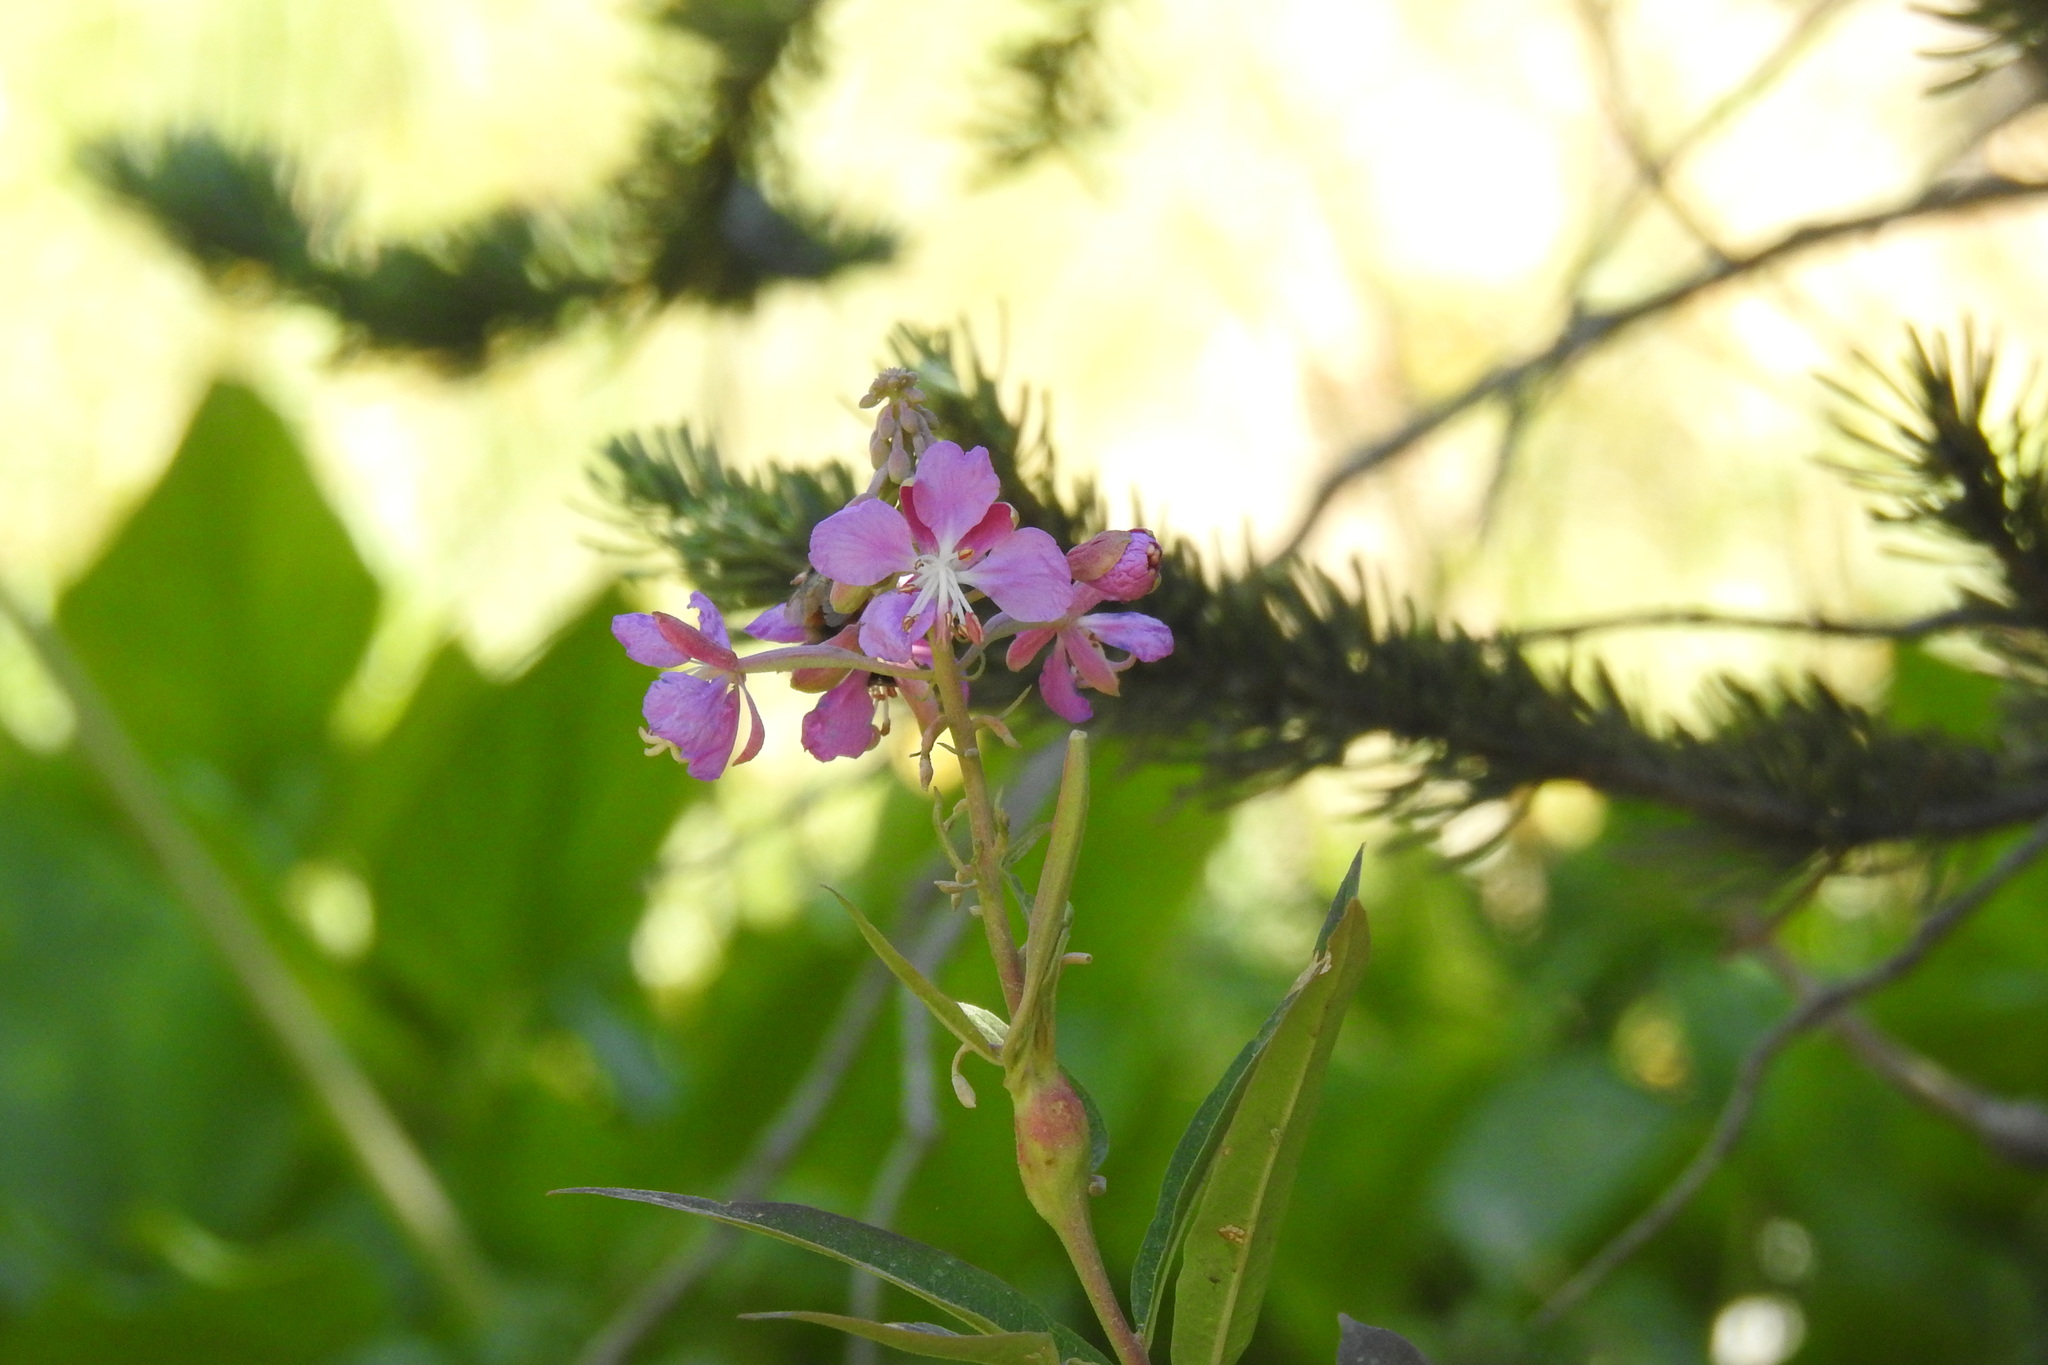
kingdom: Plantae
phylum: Tracheophyta
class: Magnoliopsida
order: Myrtales
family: Onagraceae
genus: Chamaenerion
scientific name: Chamaenerion angustifolium
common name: Fireweed
